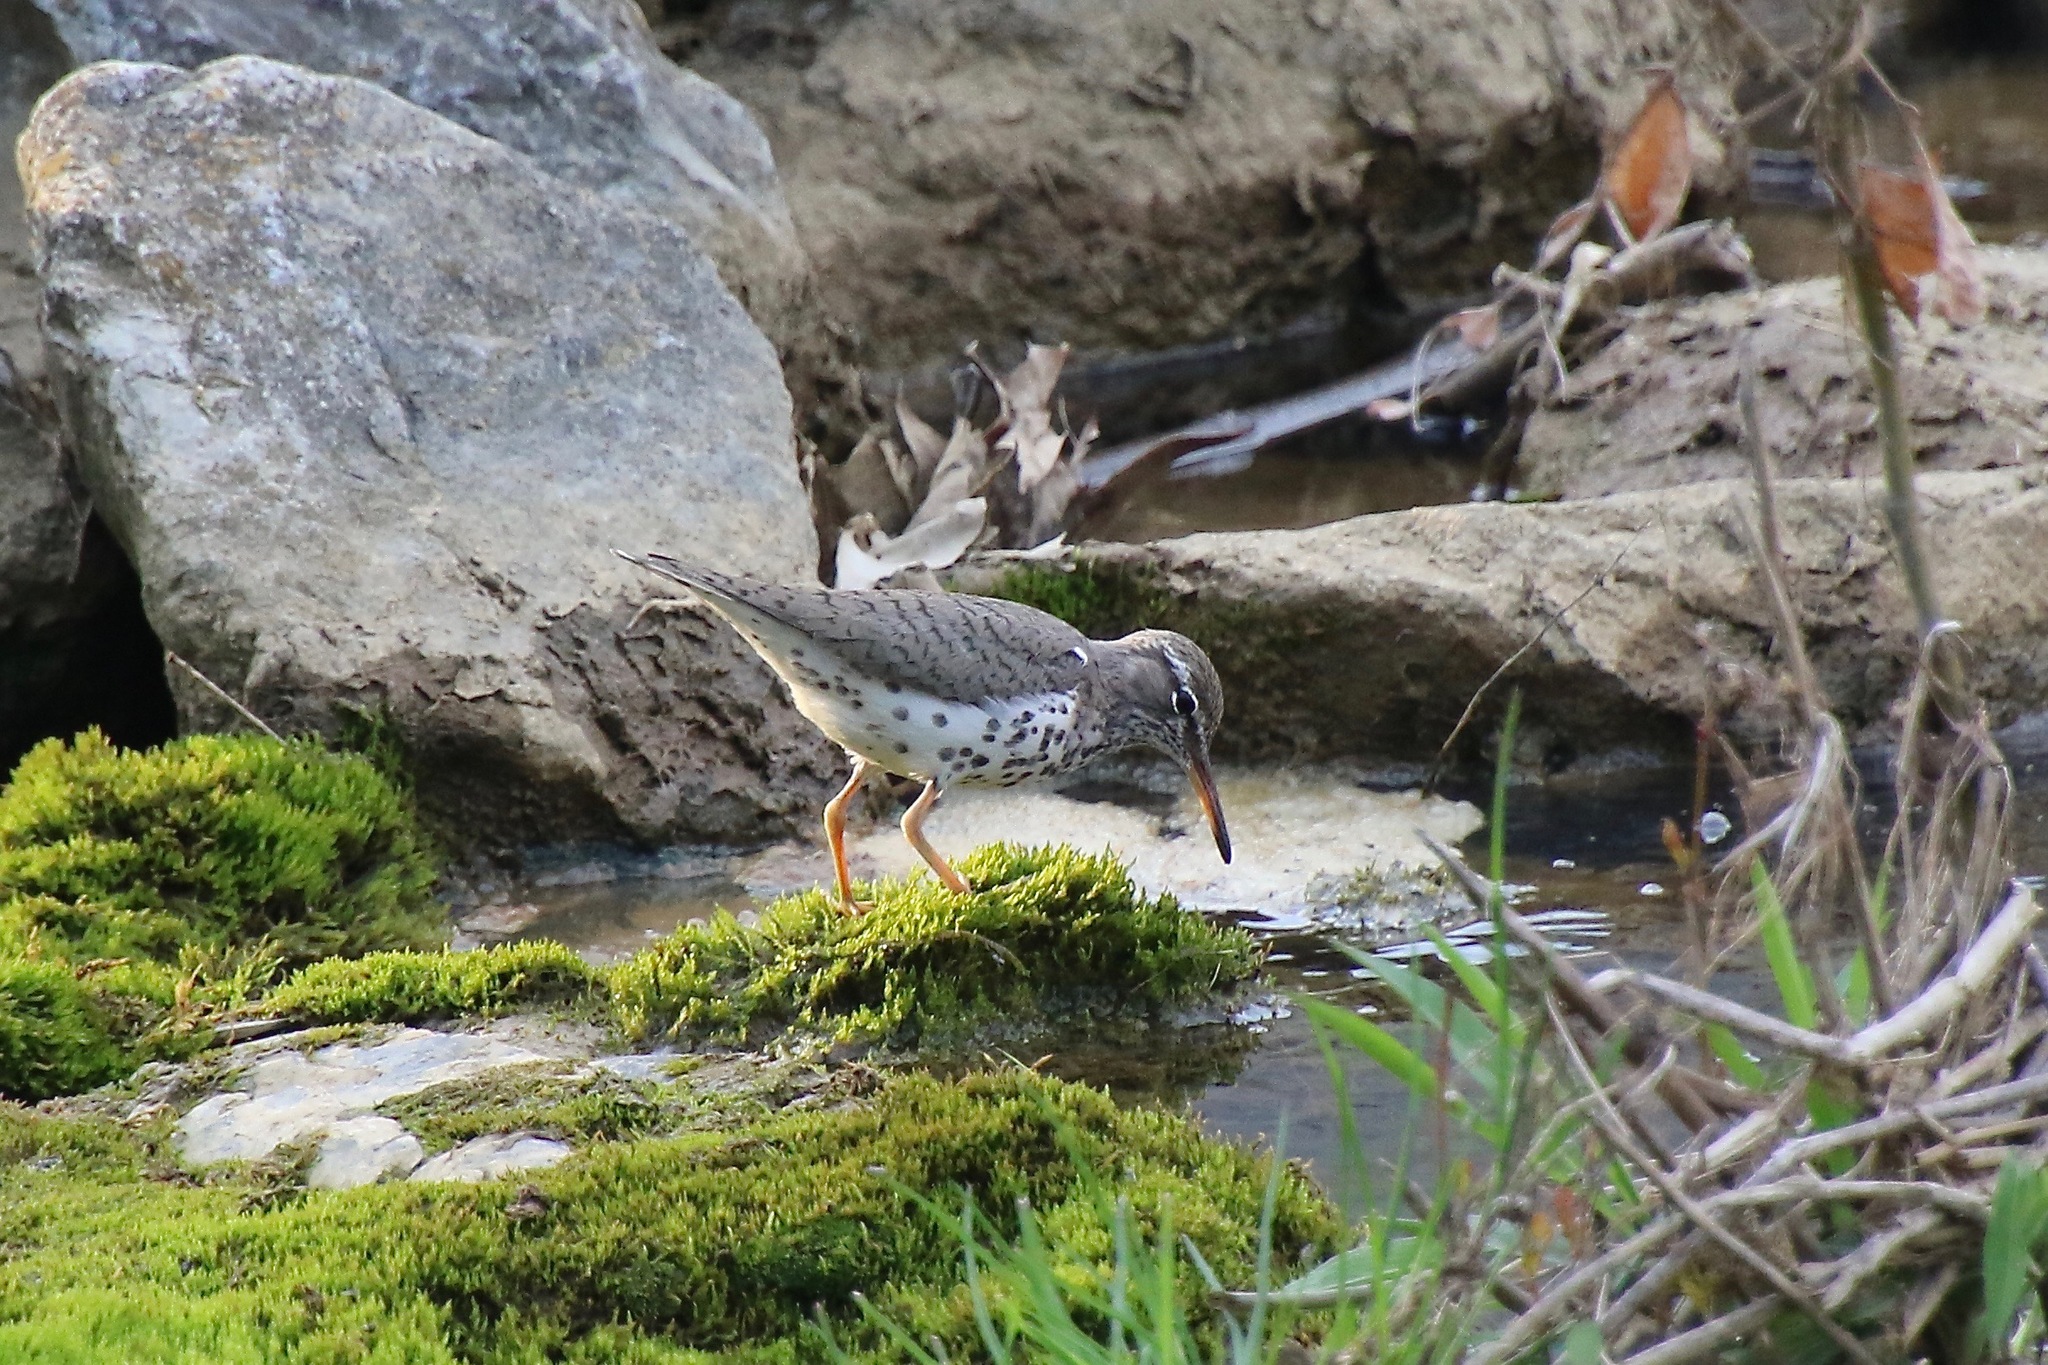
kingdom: Animalia
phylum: Chordata
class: Aves
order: Charadriiformes
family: Scolopacidae
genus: Actitis
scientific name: Actitis macularius
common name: Spotted sandpiper
